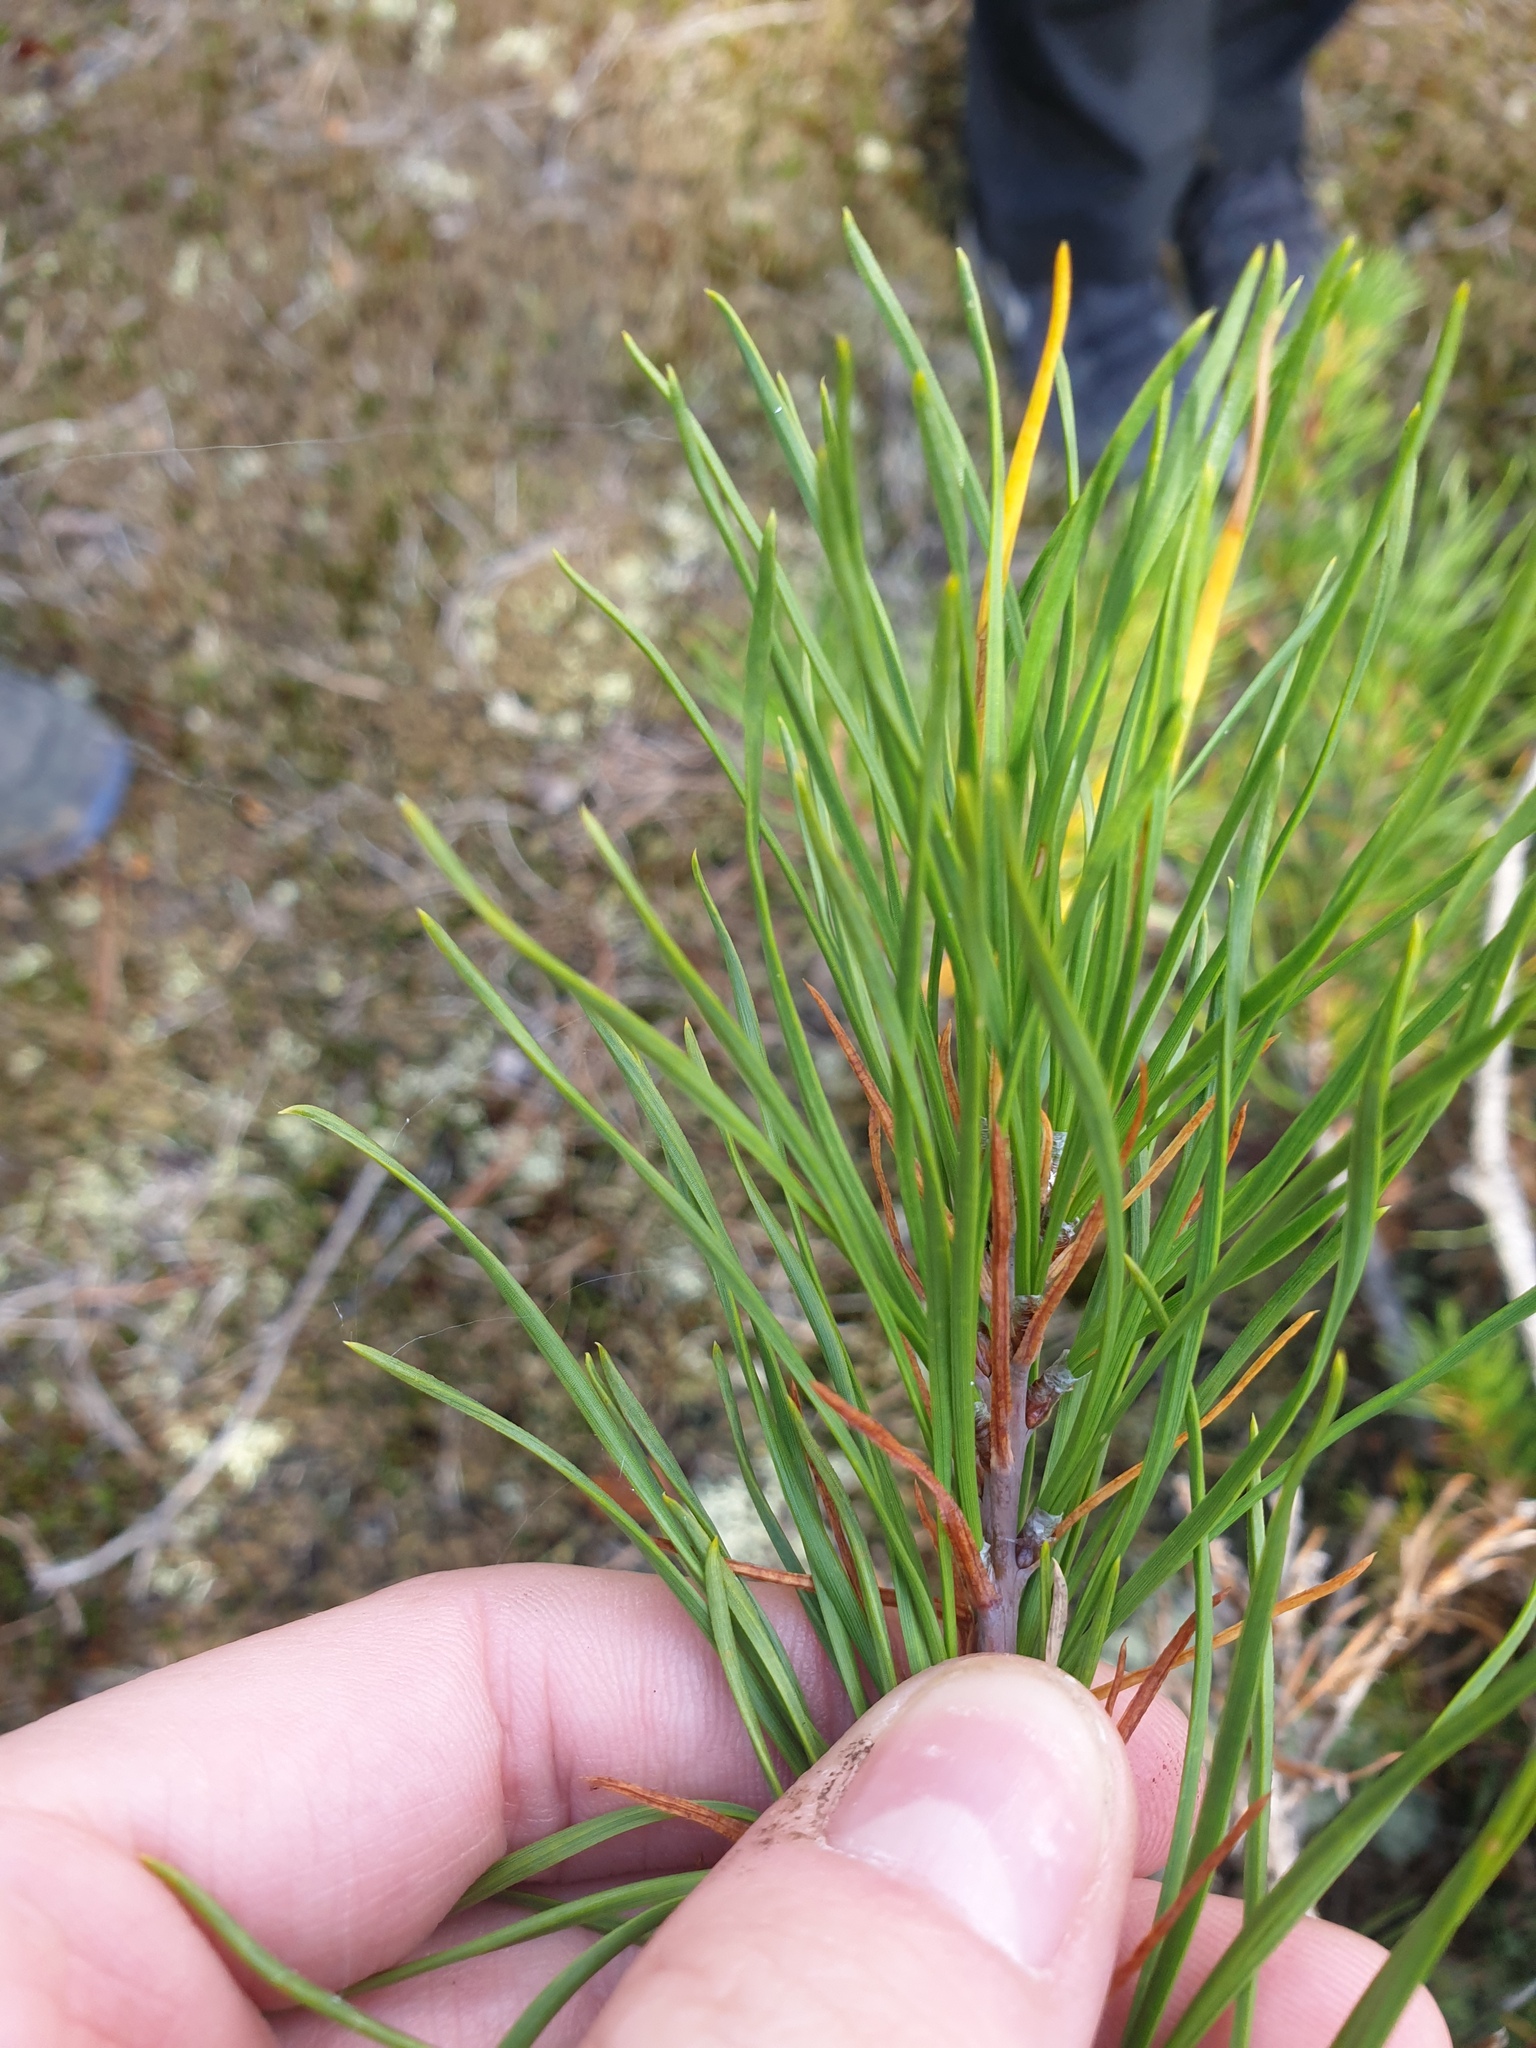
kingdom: Plantae
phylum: Tracheophyta
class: Pinopsida
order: Pinales
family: Pinaceae
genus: Pinus
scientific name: Pinus rigida
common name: Pitch pine
